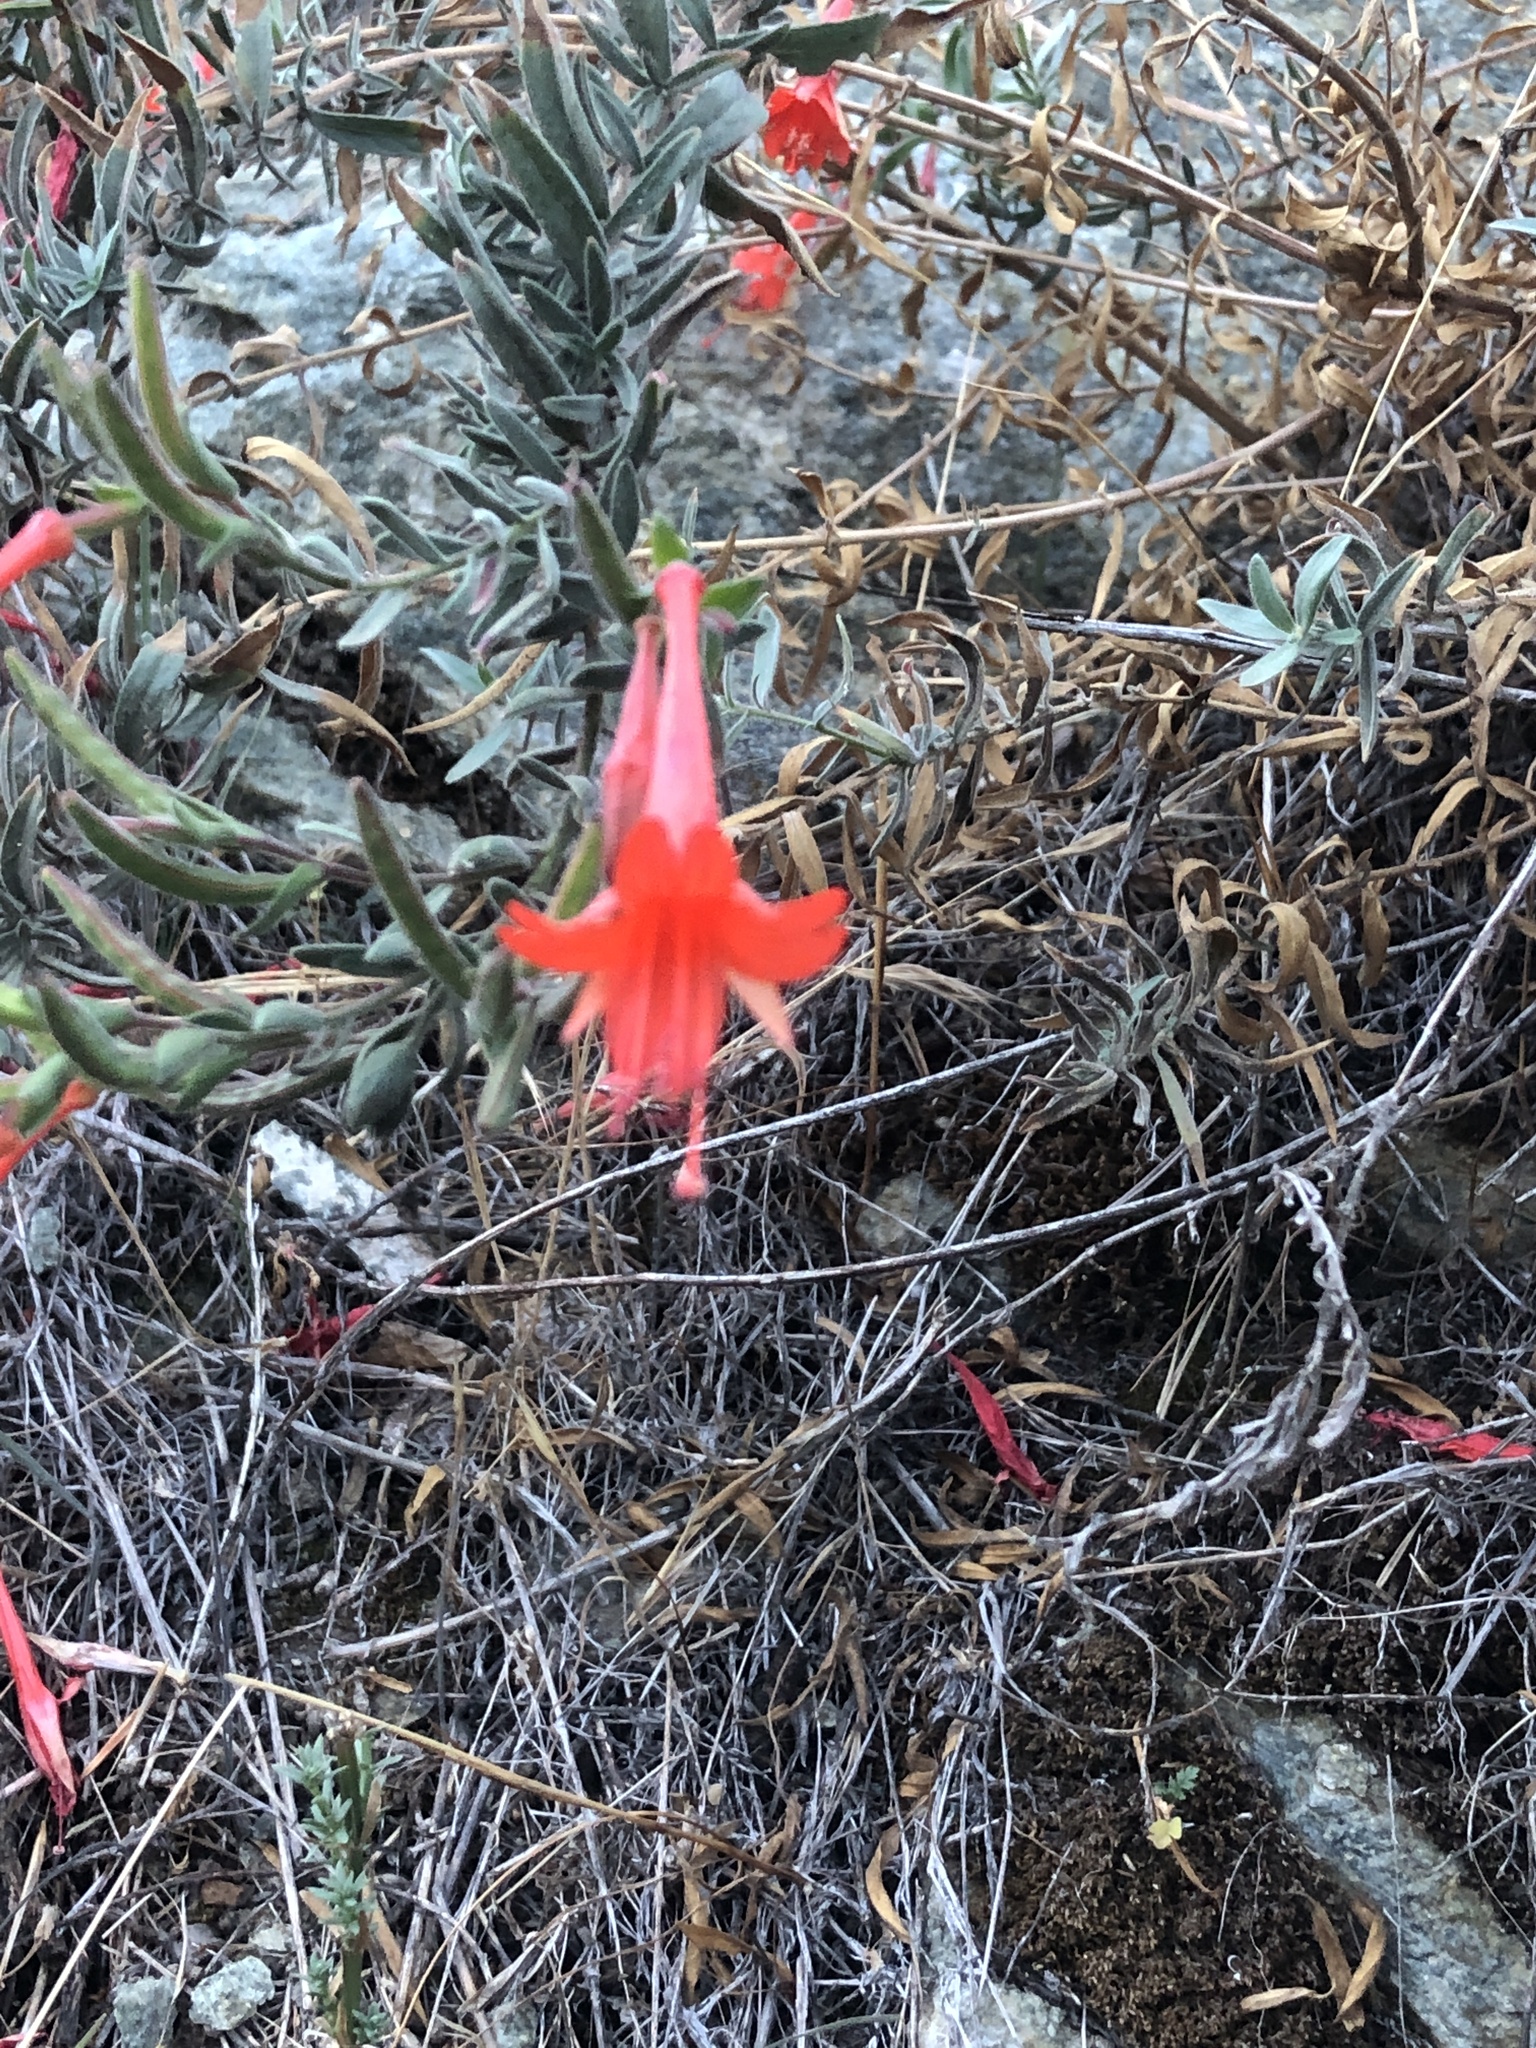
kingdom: Plantae
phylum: Tracheophyta
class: Magnoliopsida
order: Myrtales
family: Onagraceae
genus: Epilobium
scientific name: Epilobium canum
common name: California-fuchsia
